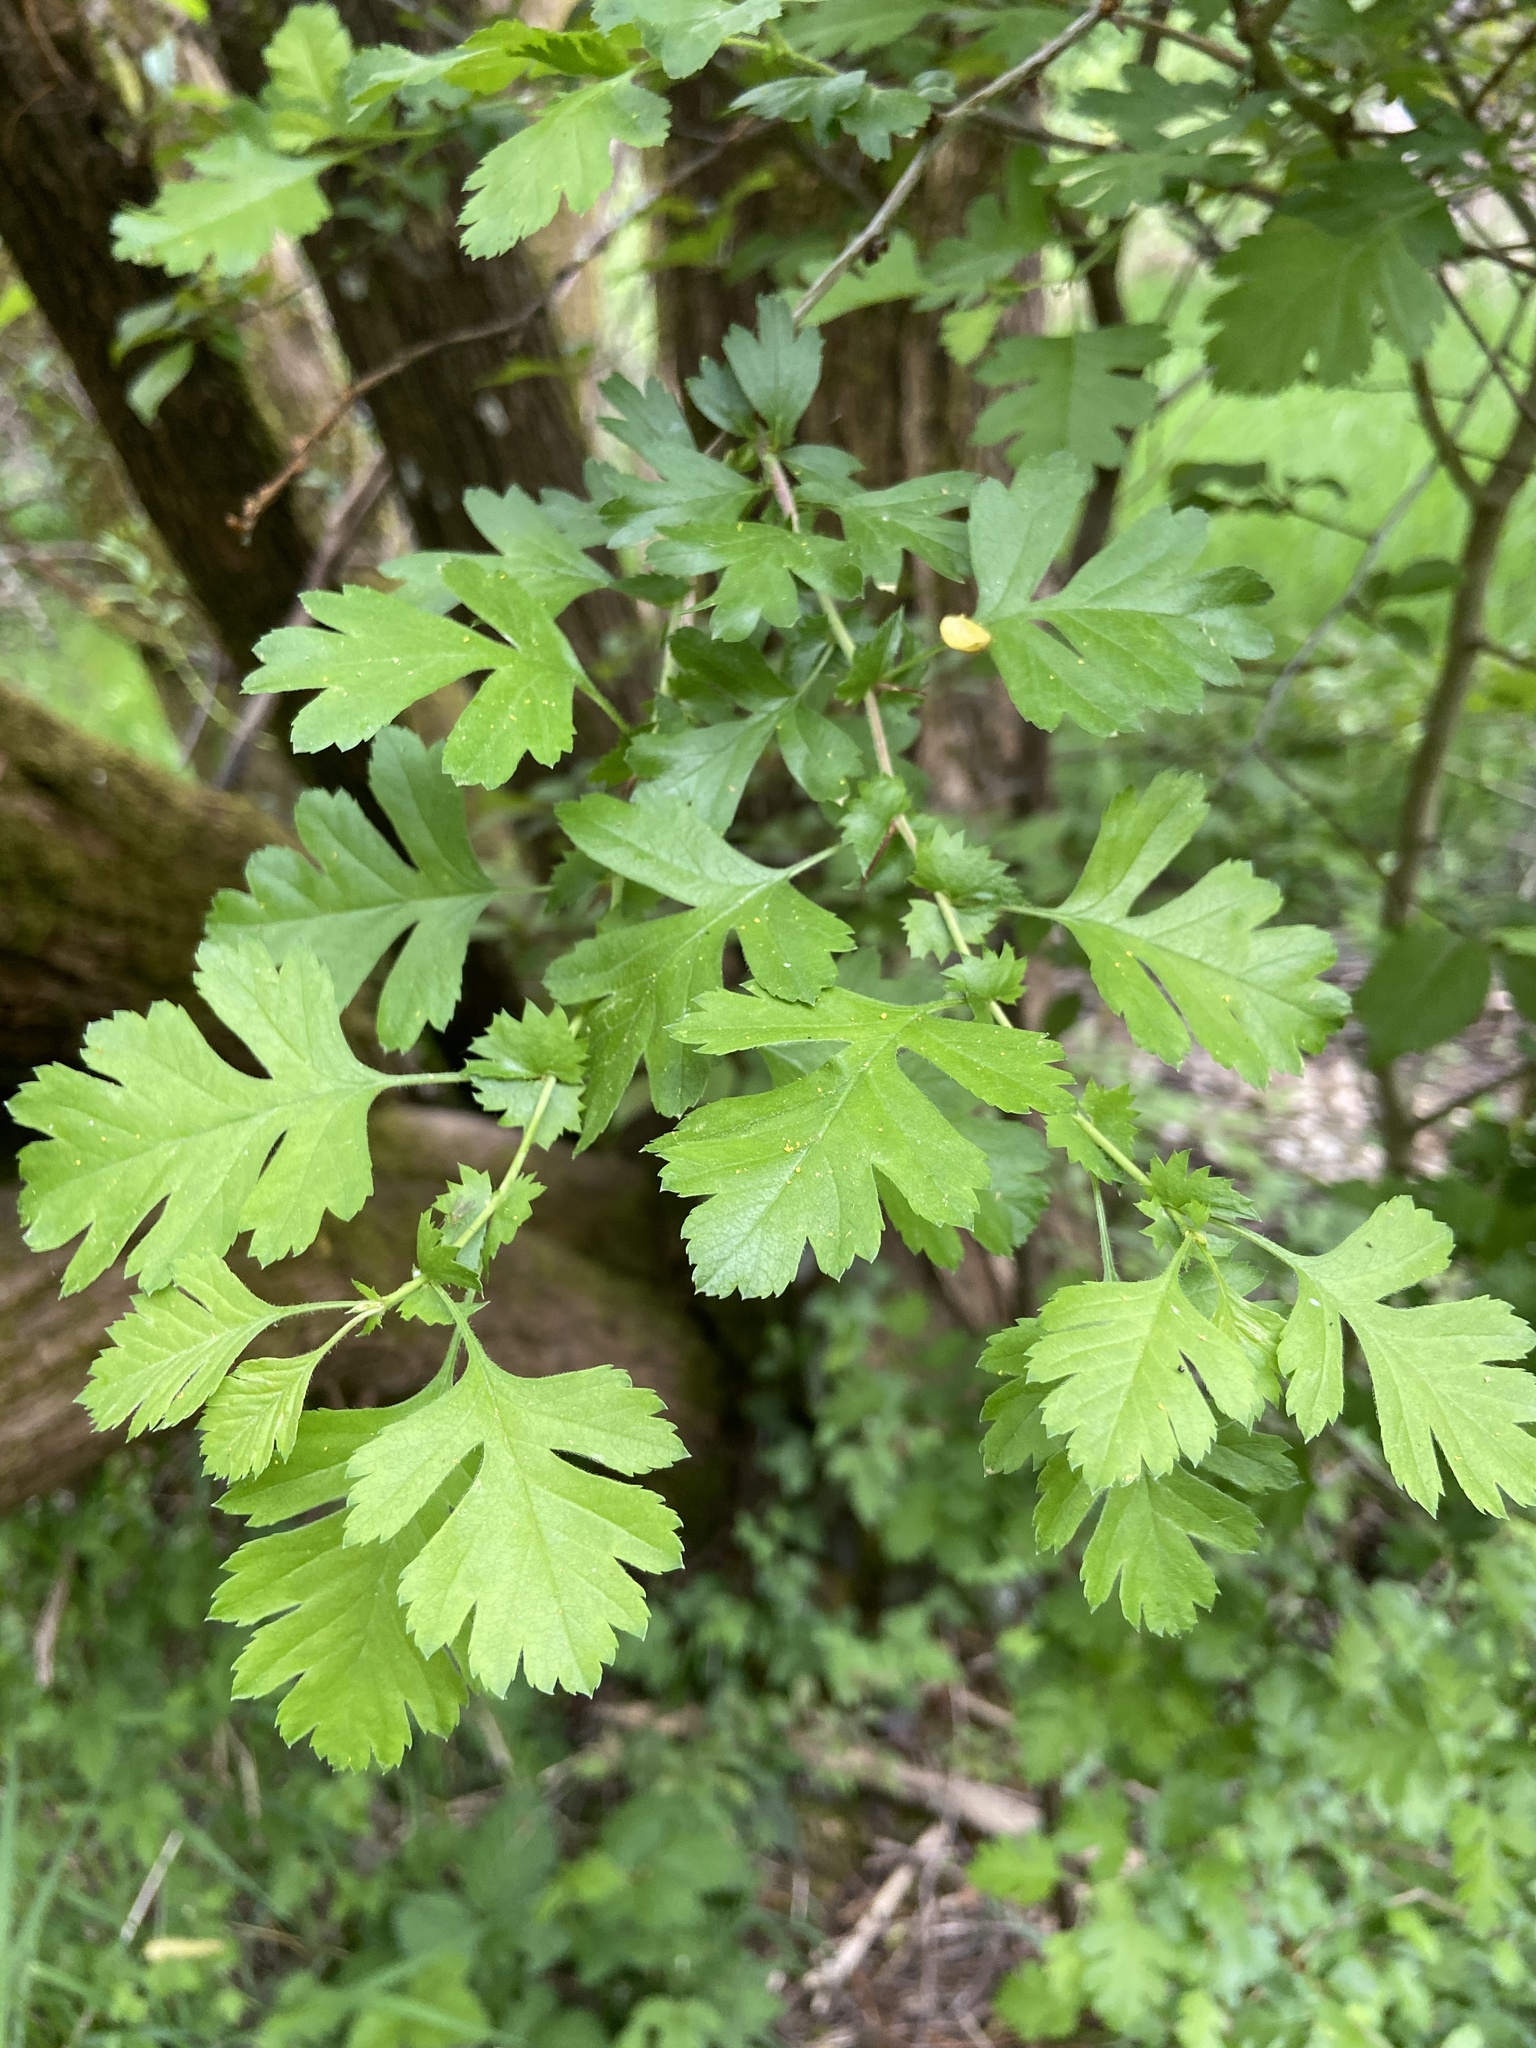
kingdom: Plantae
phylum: Tracheophyta
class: Magnoliopsida
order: Rosales
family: Rosaceae
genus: Crataegus
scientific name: Crataegus monogyna
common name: Hawthorn
